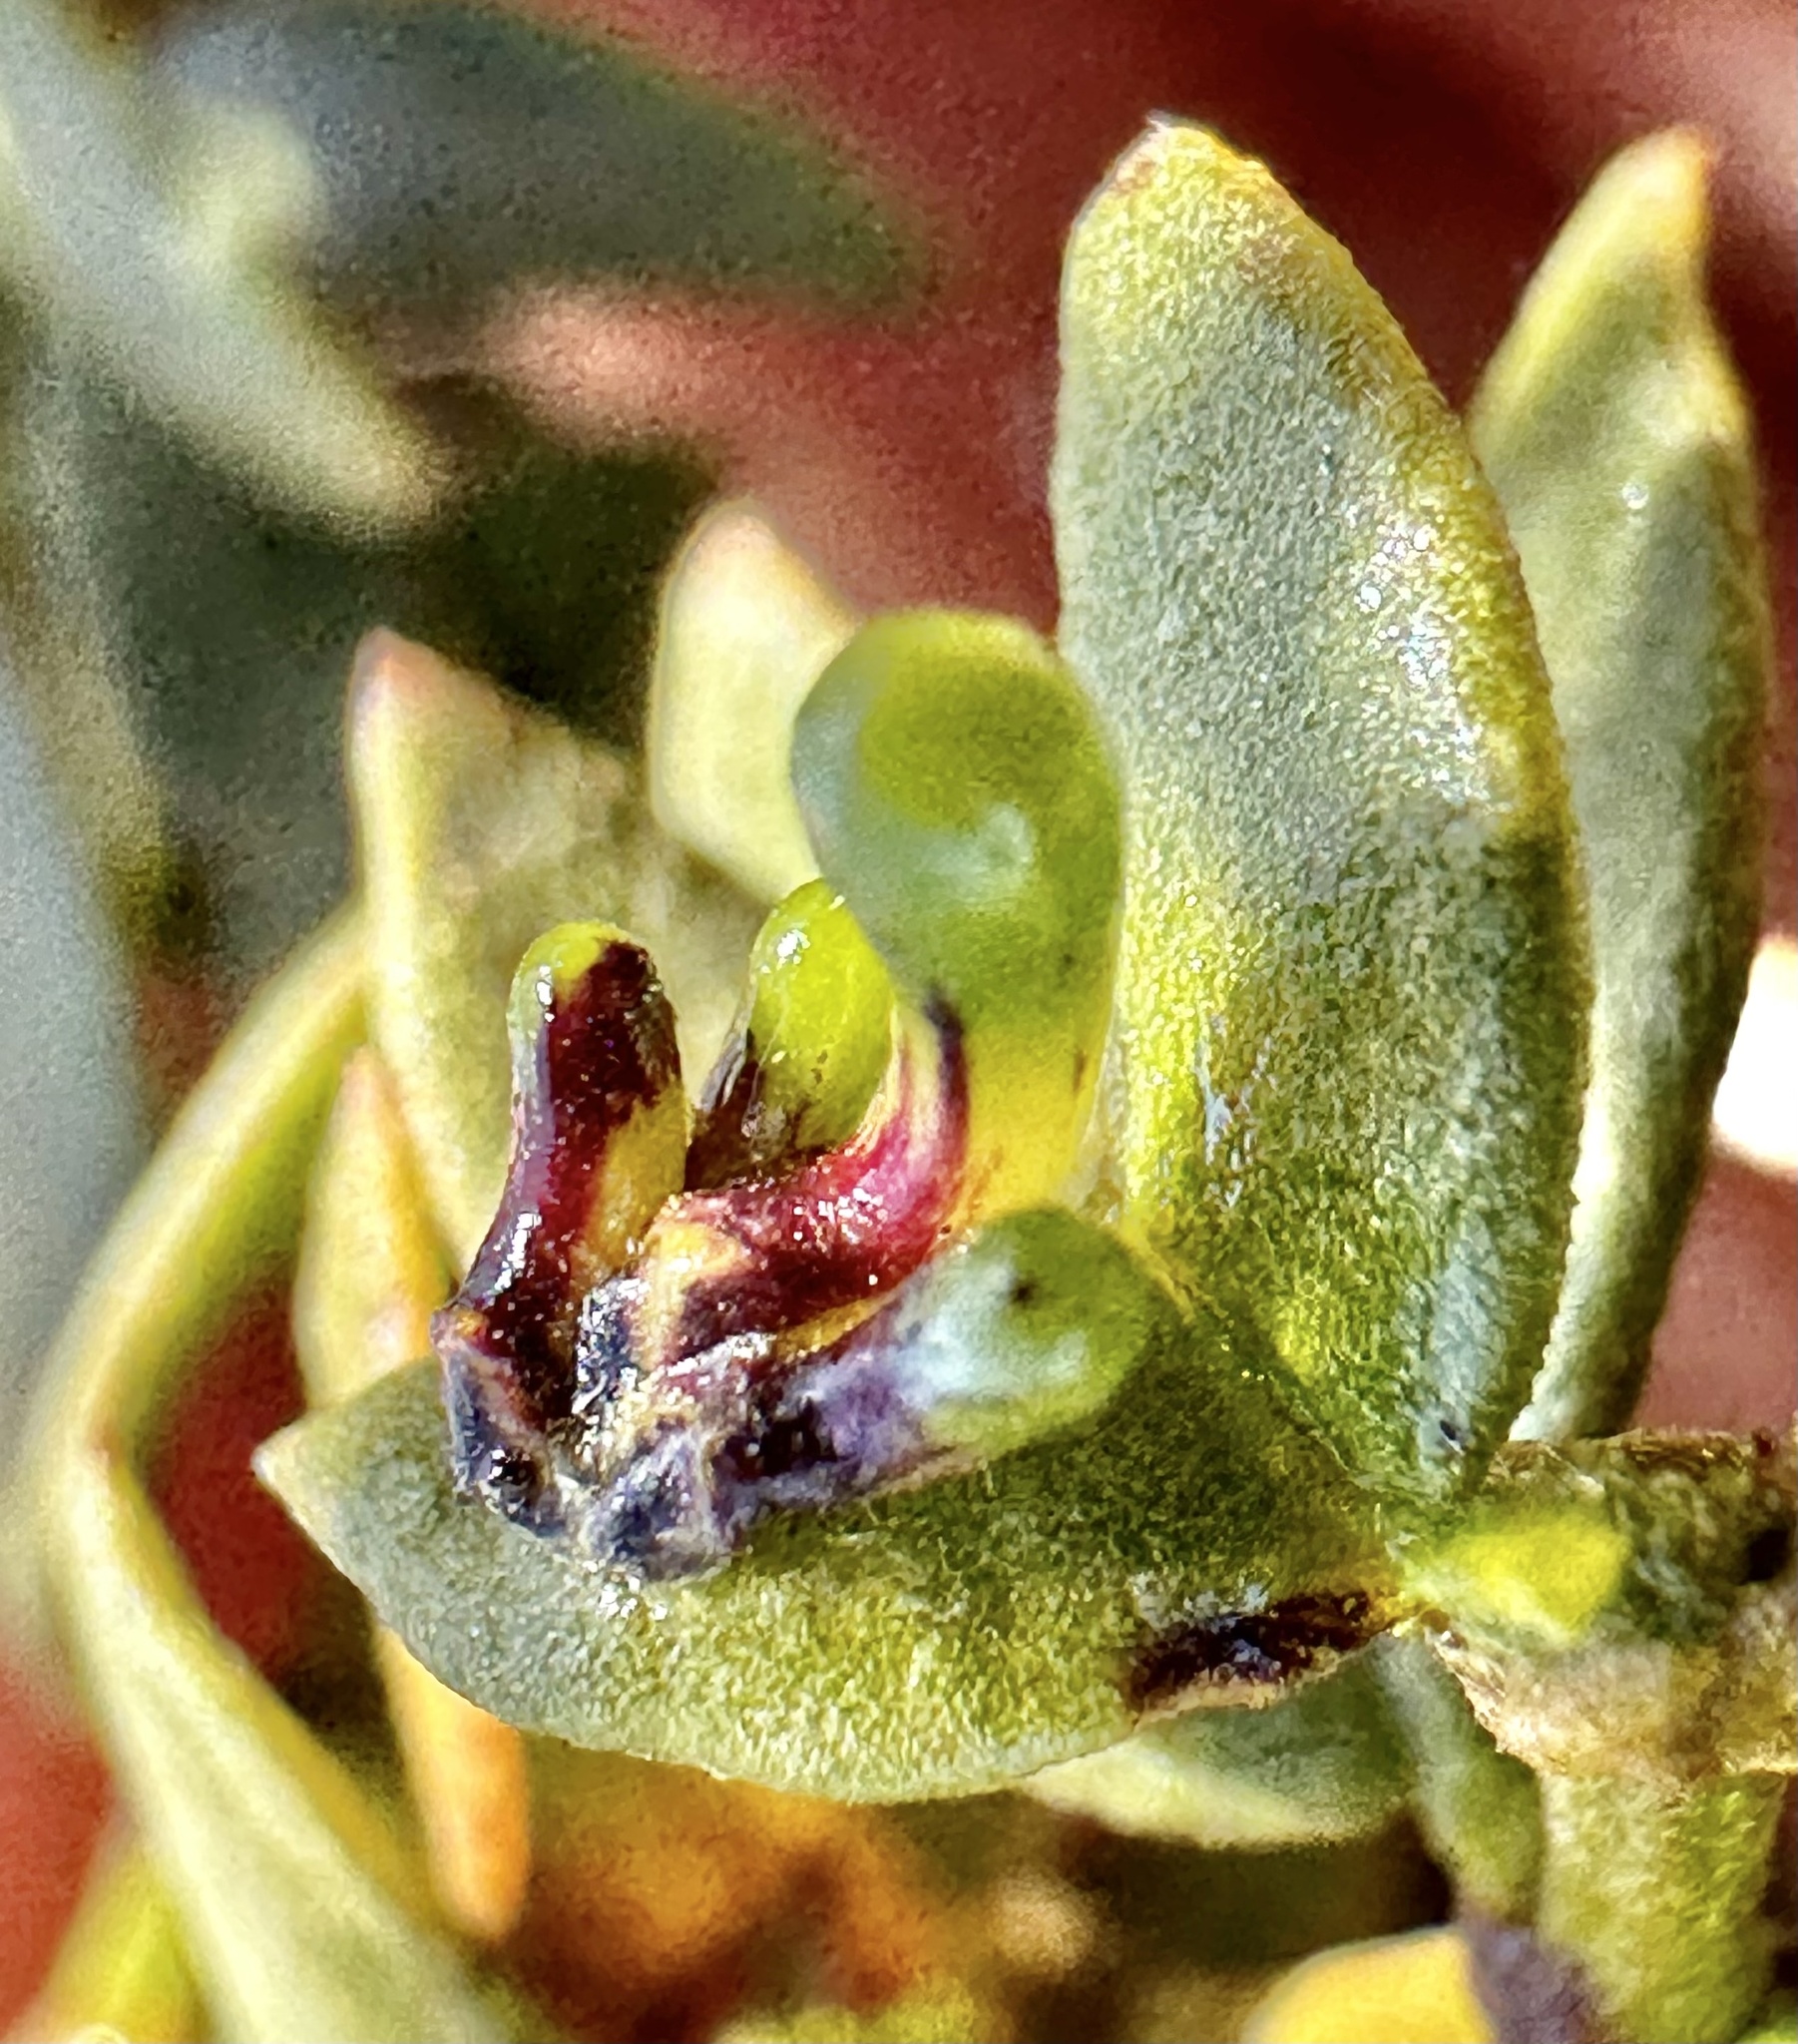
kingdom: Animalia
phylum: Arthropoda
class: Insecta
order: Diptera
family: Cecidomyiidae
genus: Asphondylia
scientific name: Asphondylia clavata
